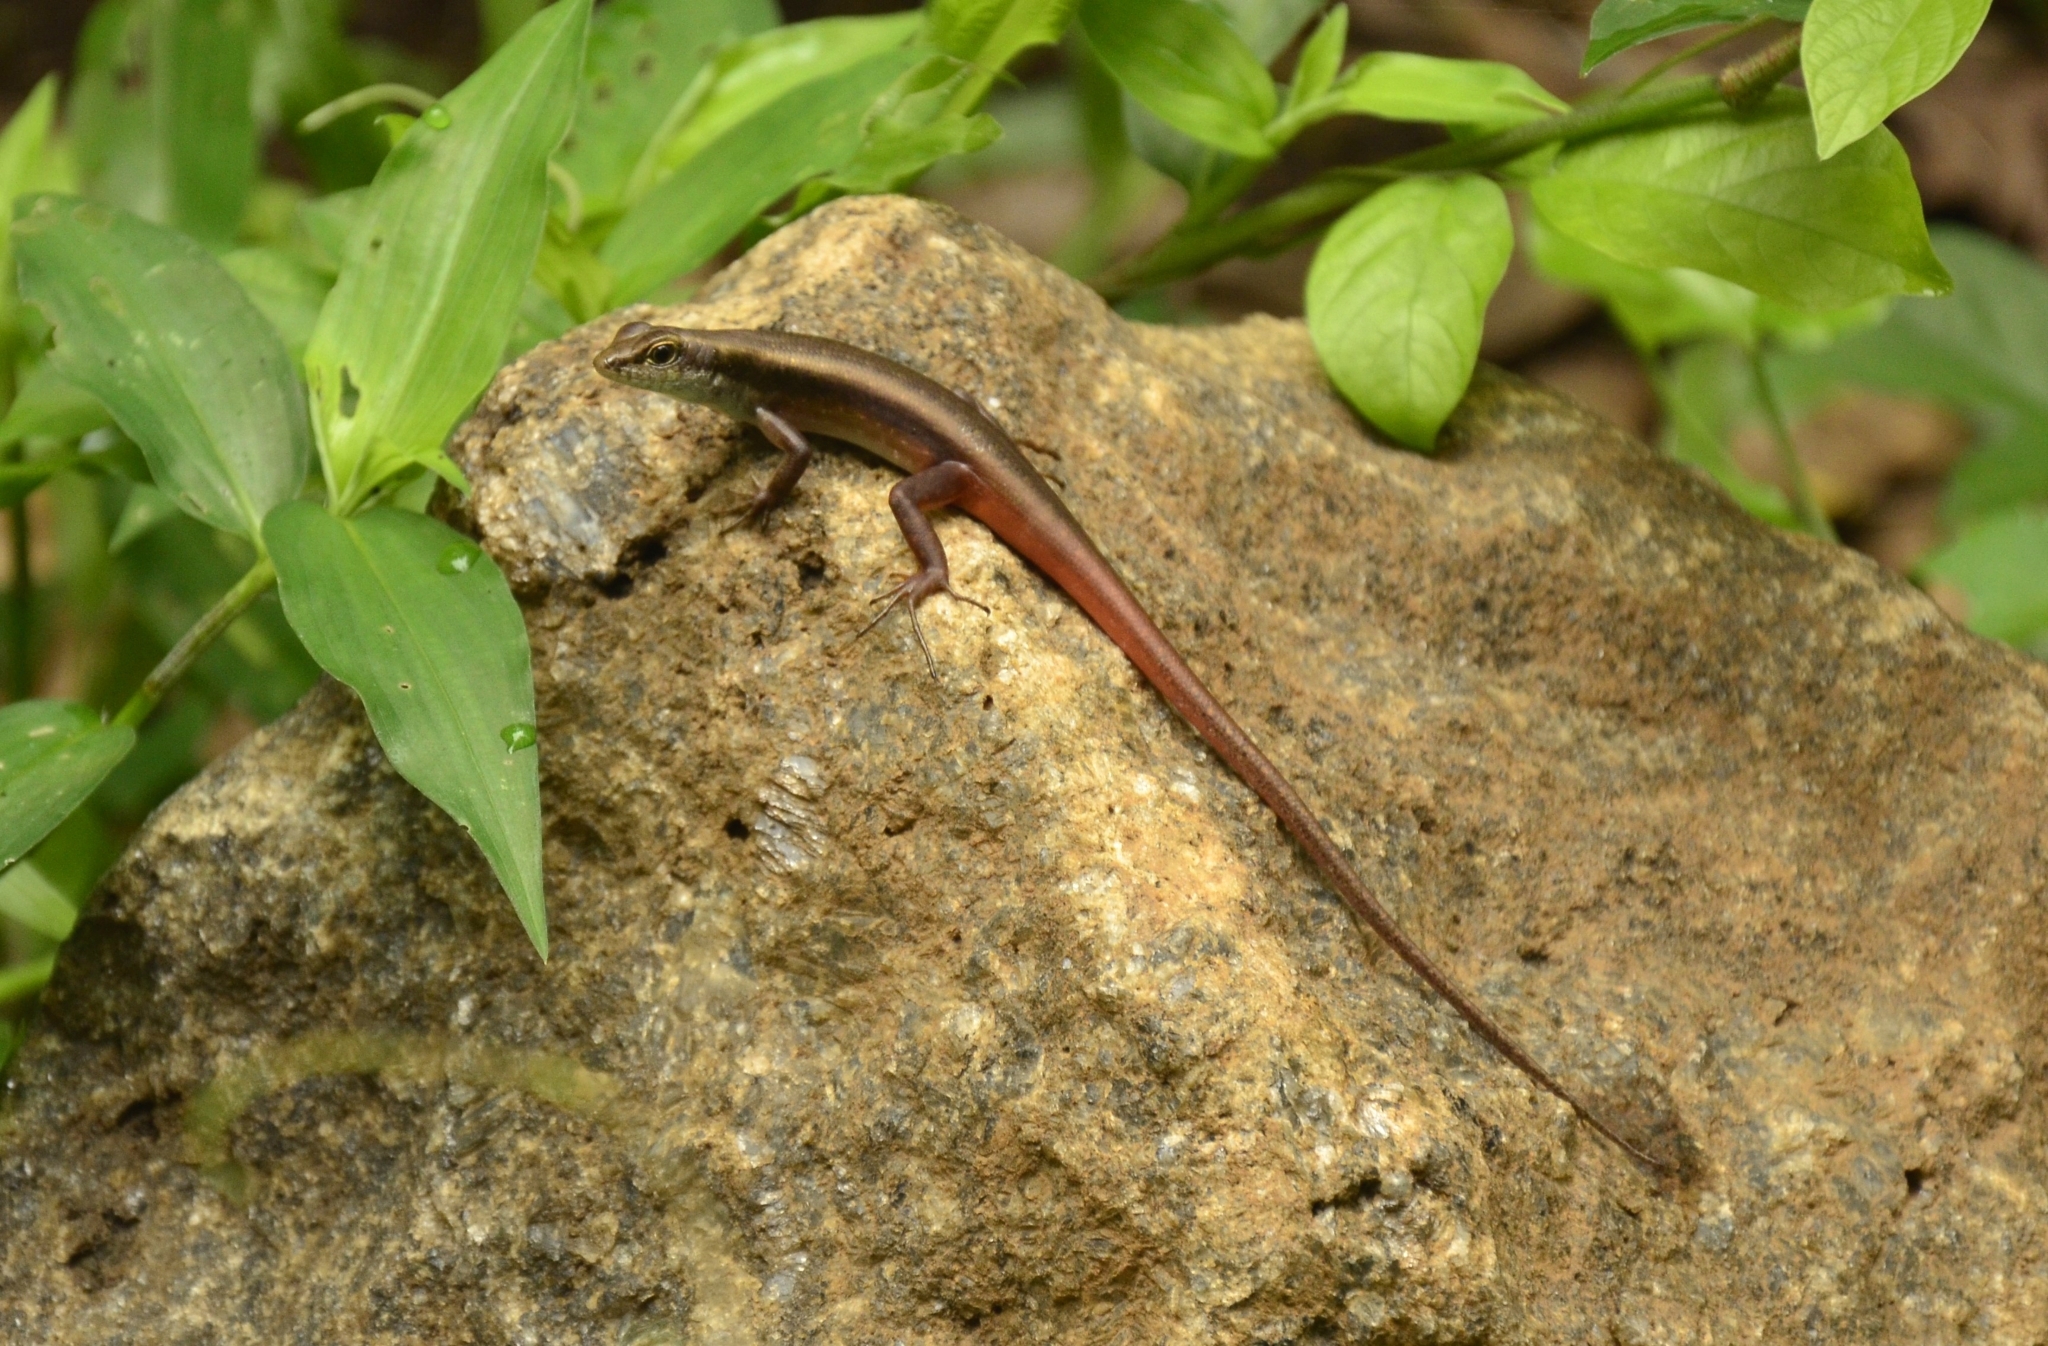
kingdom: Animalia
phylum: Chordata
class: Squamata
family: Scincidae
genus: Sphenomorphus
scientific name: Sphenomorphus dussumieri
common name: Dussumier's forest skink
